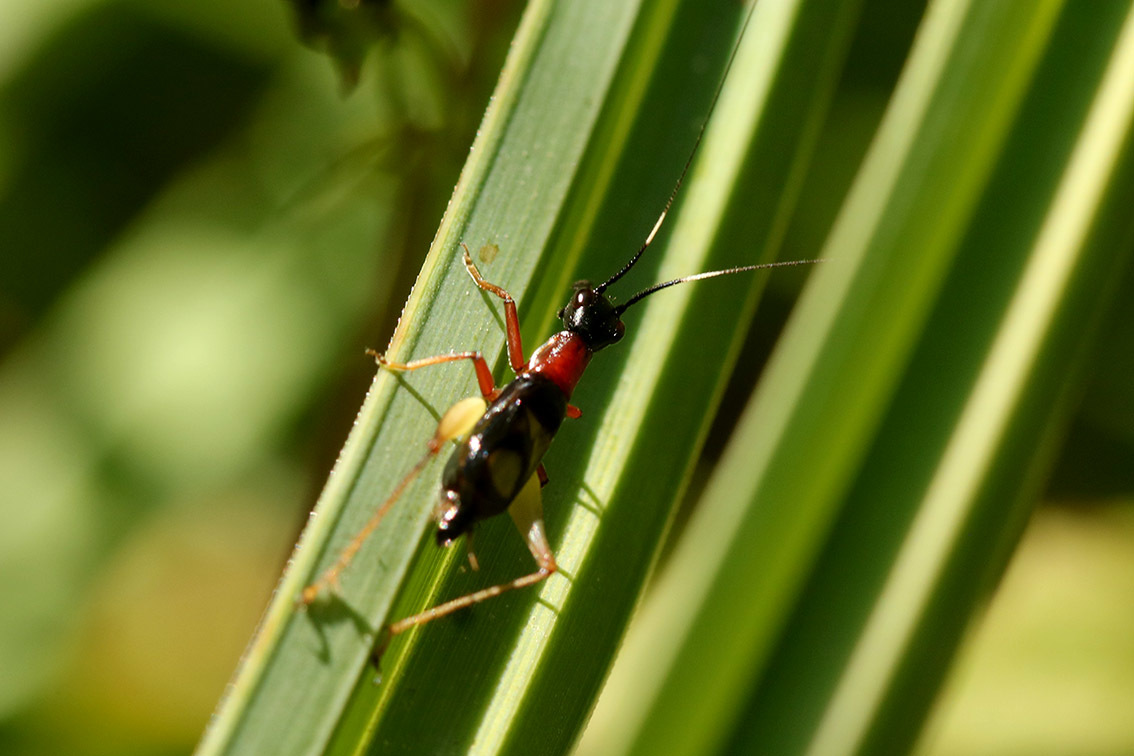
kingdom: Animalia
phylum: Arthropoda
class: Insecta
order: Orthoptera
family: Trigonidiidae
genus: Cranistus
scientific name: Cranistus colliurides
